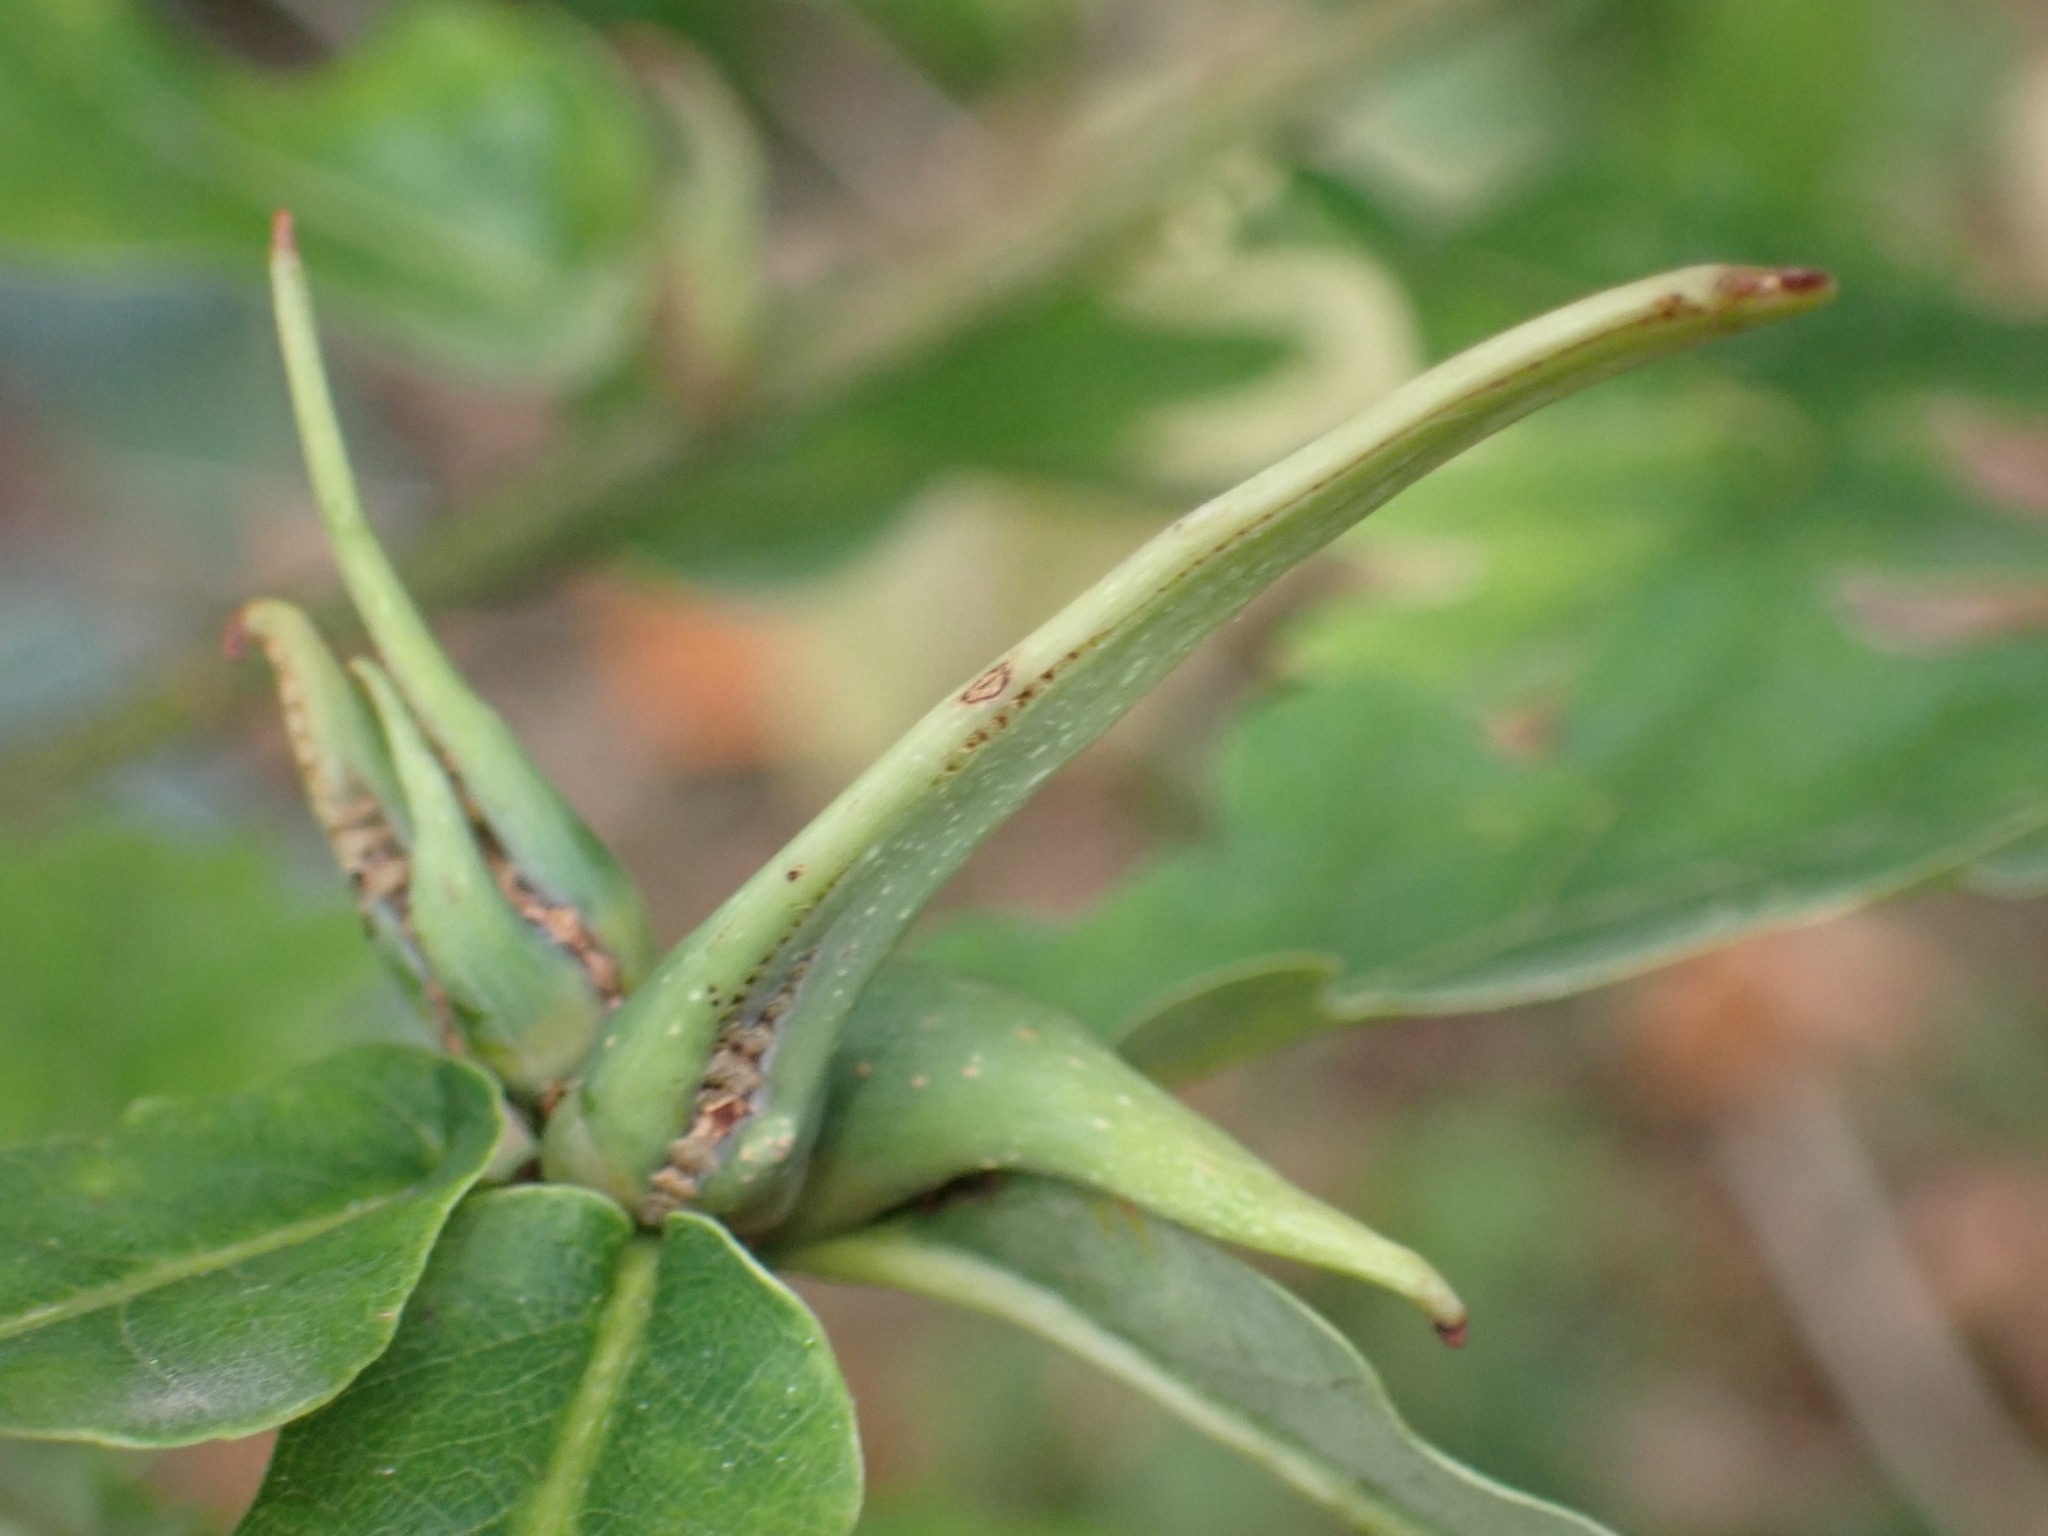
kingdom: Animalia
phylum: Arthropoda
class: Insecta
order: Hymenoptera
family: Cynipidae
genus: Andricus
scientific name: Andricus aries
